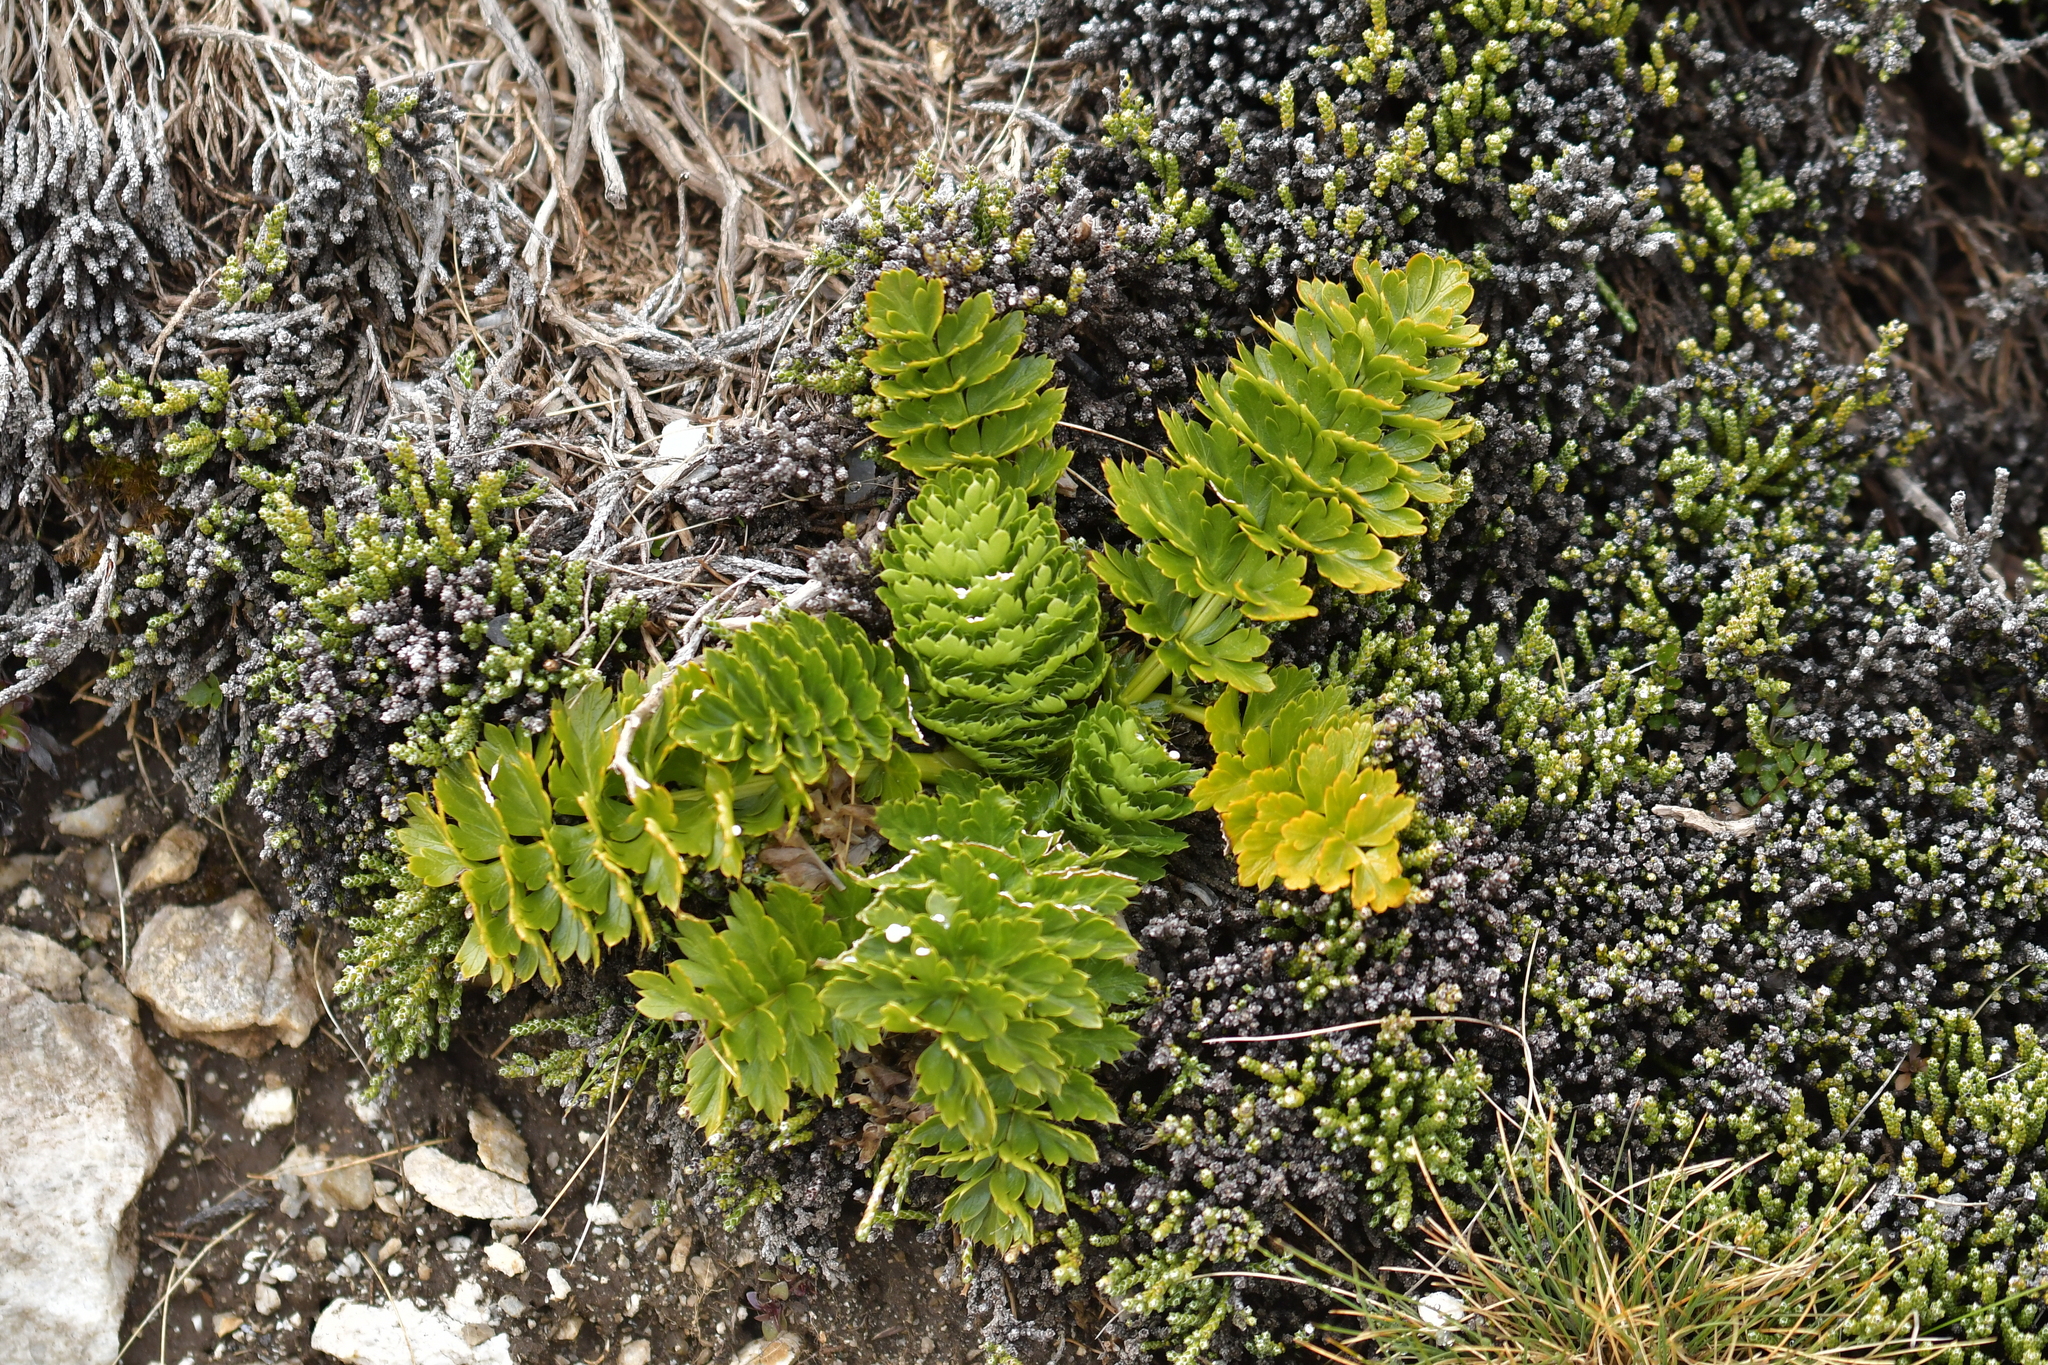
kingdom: Plantae
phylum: Tracheophyta
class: Magnoliopsida
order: Apiales
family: Apiaceae
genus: Anisotome
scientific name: Anisotome pilifera
